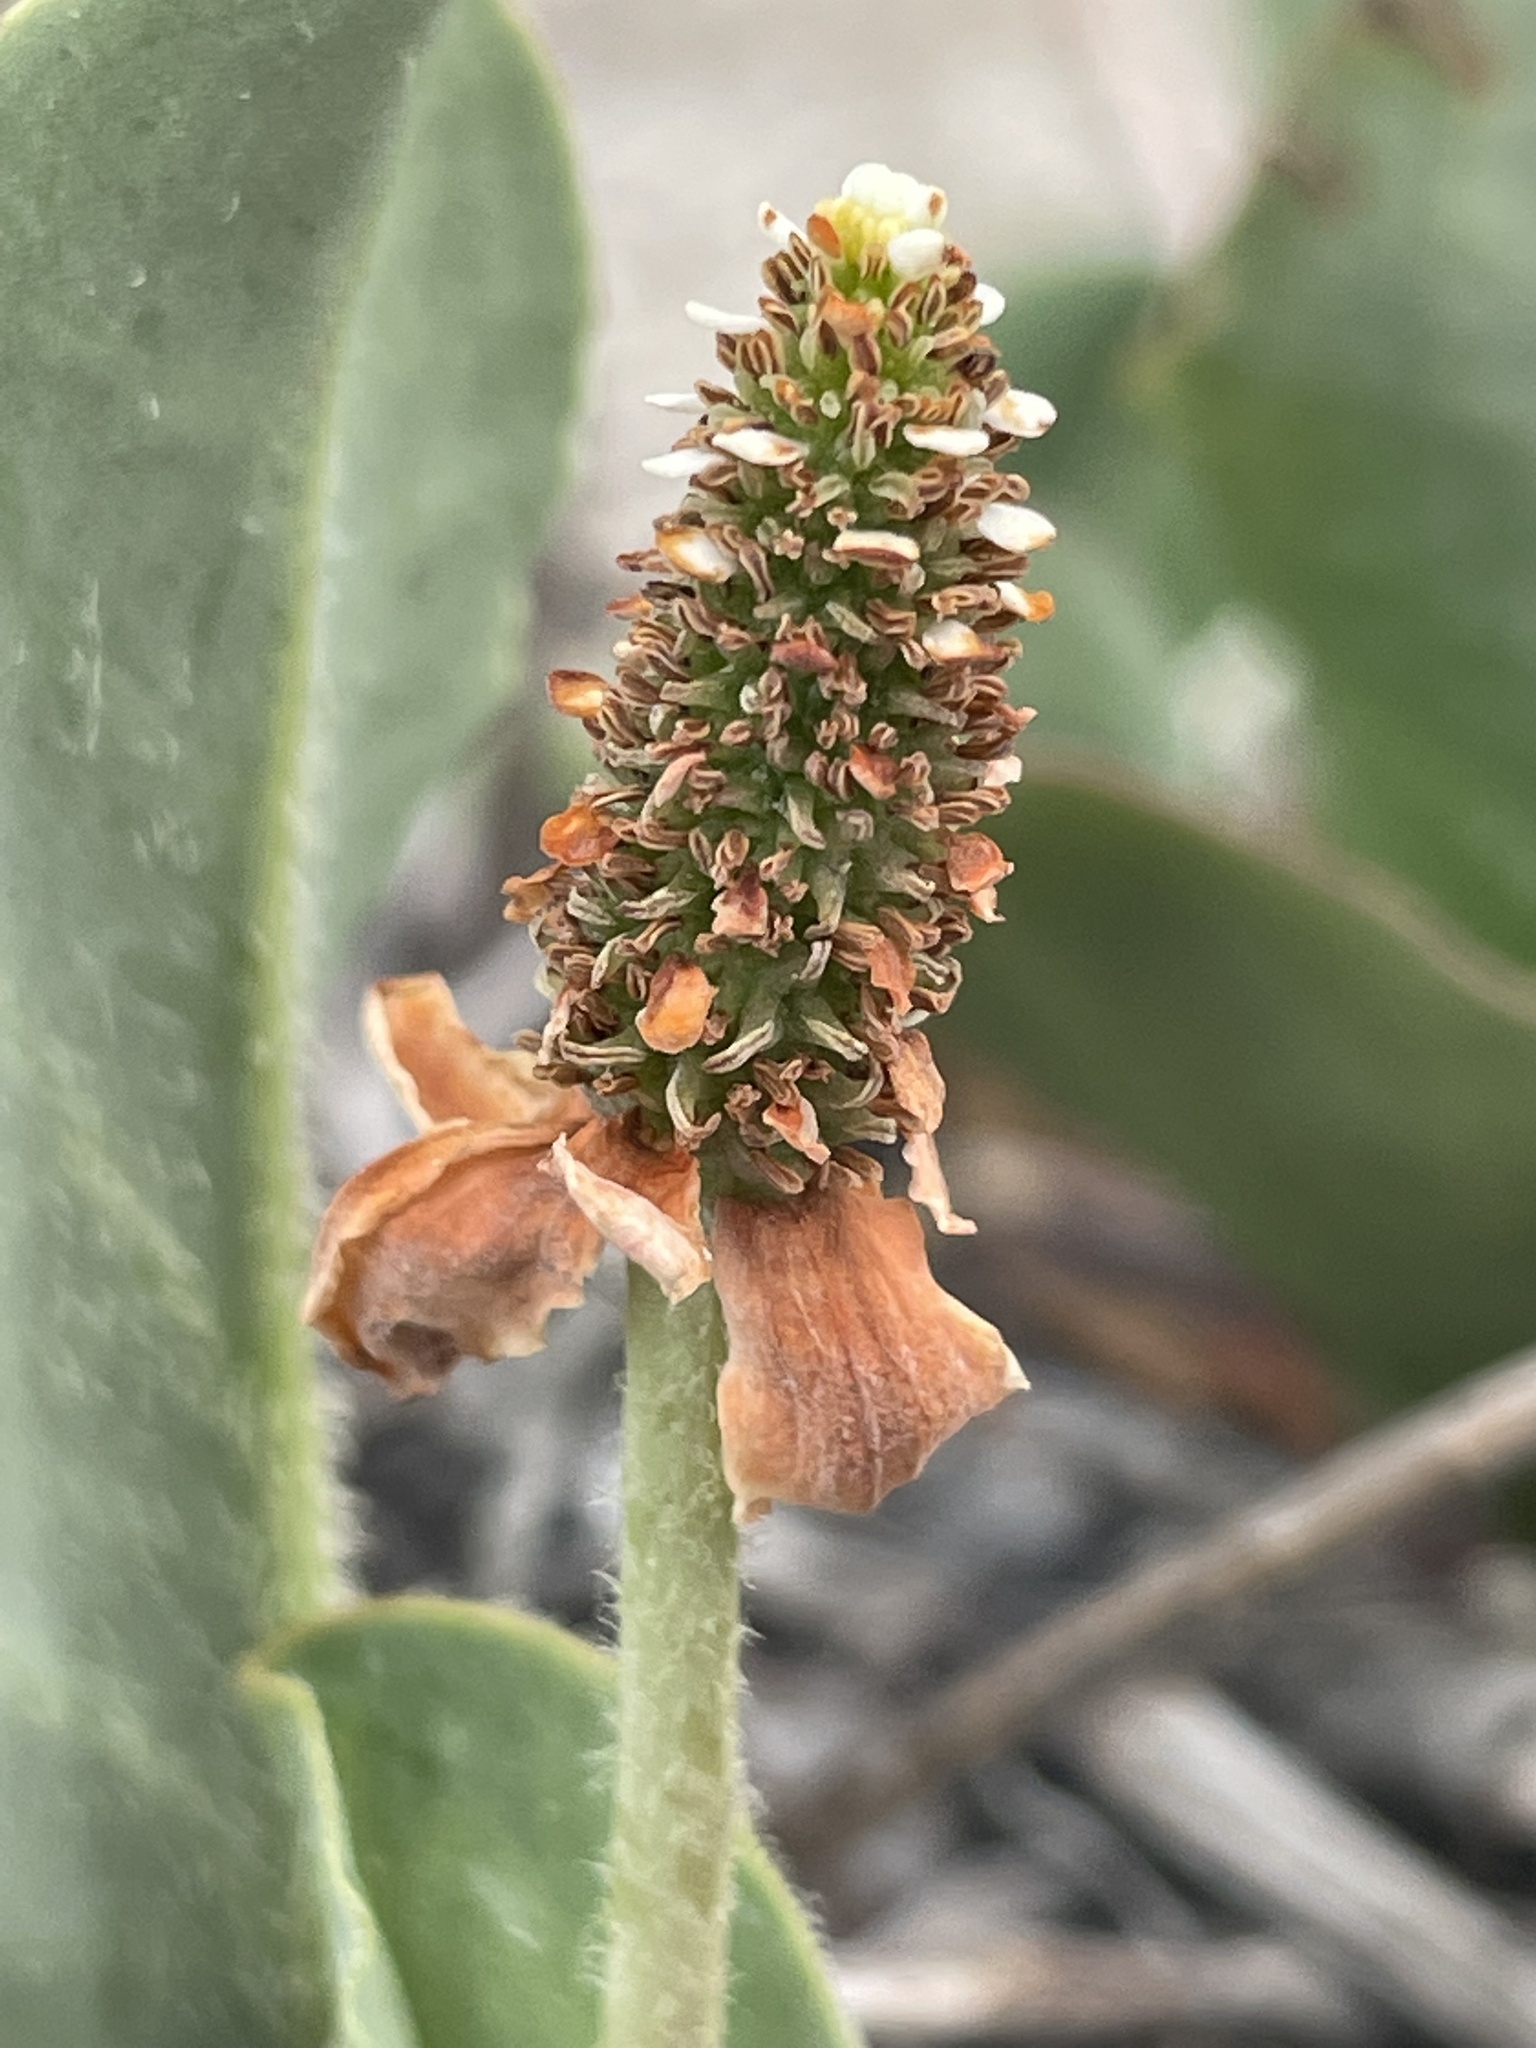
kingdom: Plantae
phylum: Tracheophyta
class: Magnoliopsida
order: Piperales
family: Saururaceae
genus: Anemopsis
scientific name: Anemopsis californica
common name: Apache-beads
